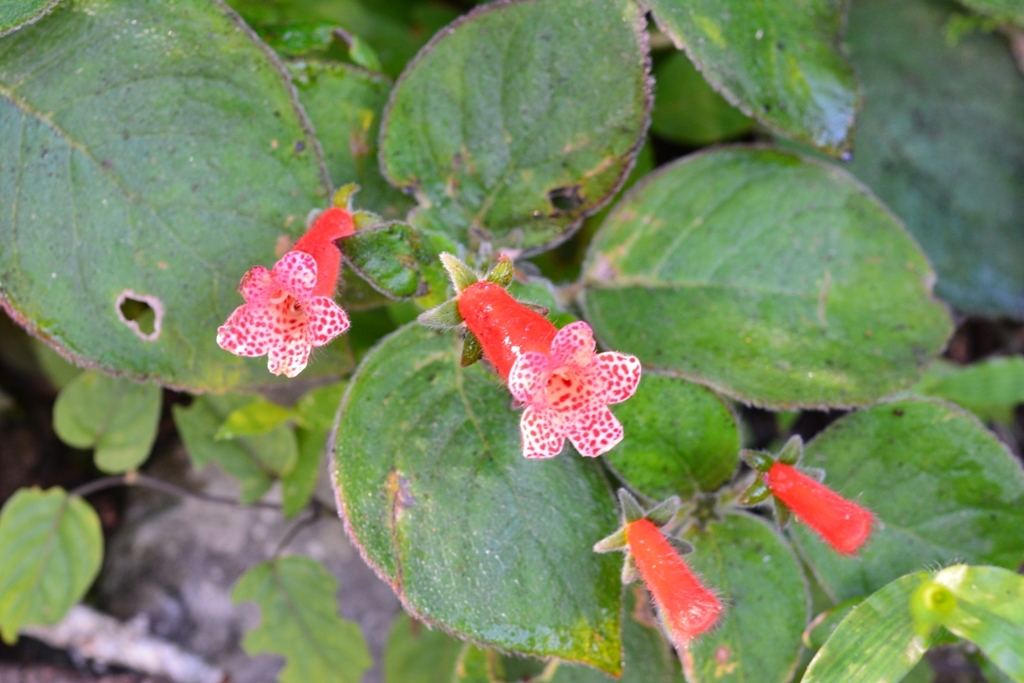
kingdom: Plantae
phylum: Tracheophyta
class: Magnoliopsida
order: Lamiales
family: Gesneriaceae
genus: Kohleria
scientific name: Kohleria rugata
